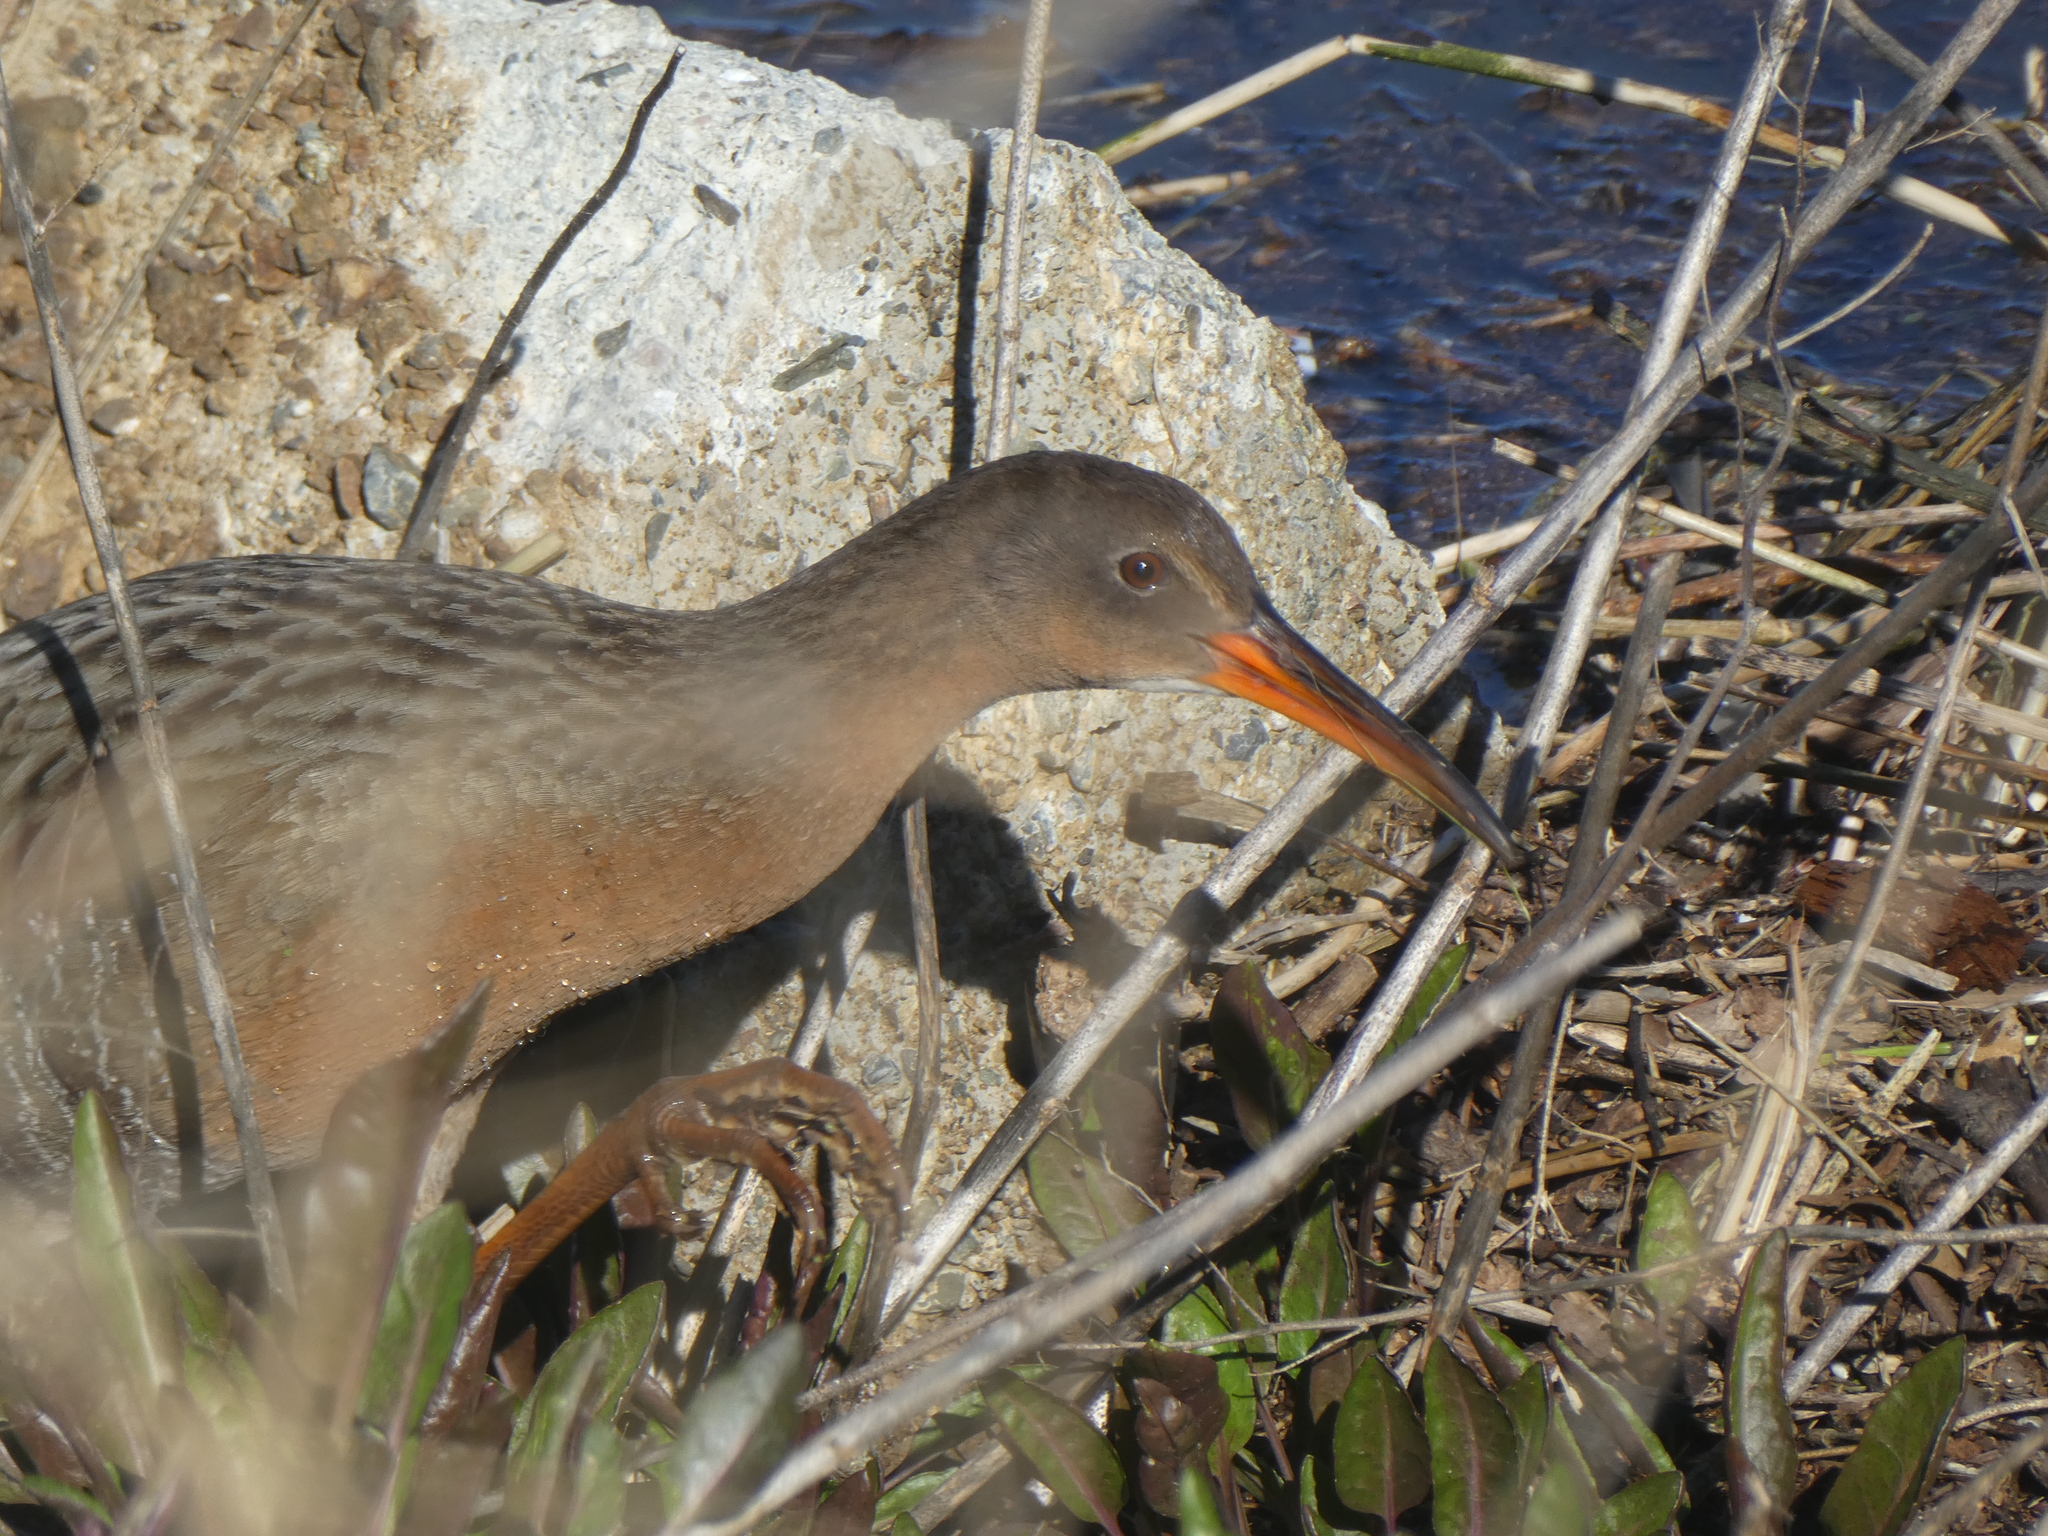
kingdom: Animalia
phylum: Chordata
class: Aves
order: Gruiformes
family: Rallidae
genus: Rallus
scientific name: Rallus obsoletus
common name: Ridgway's rail
